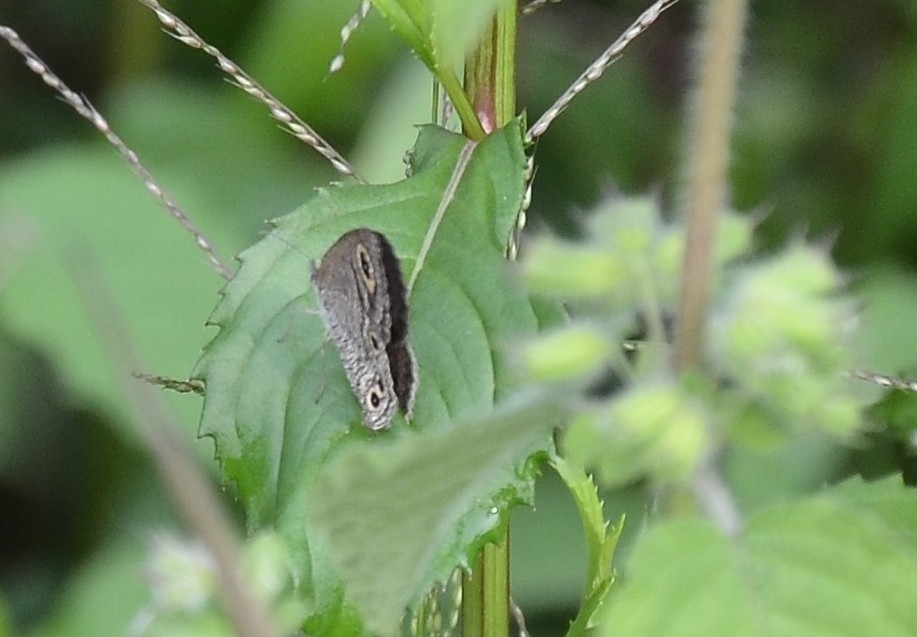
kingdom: Animalia
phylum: Arthropoda
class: Insecta
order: Lepidoptera
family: Nymphalidae
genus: Ypthima
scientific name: Ypthima huebneri
